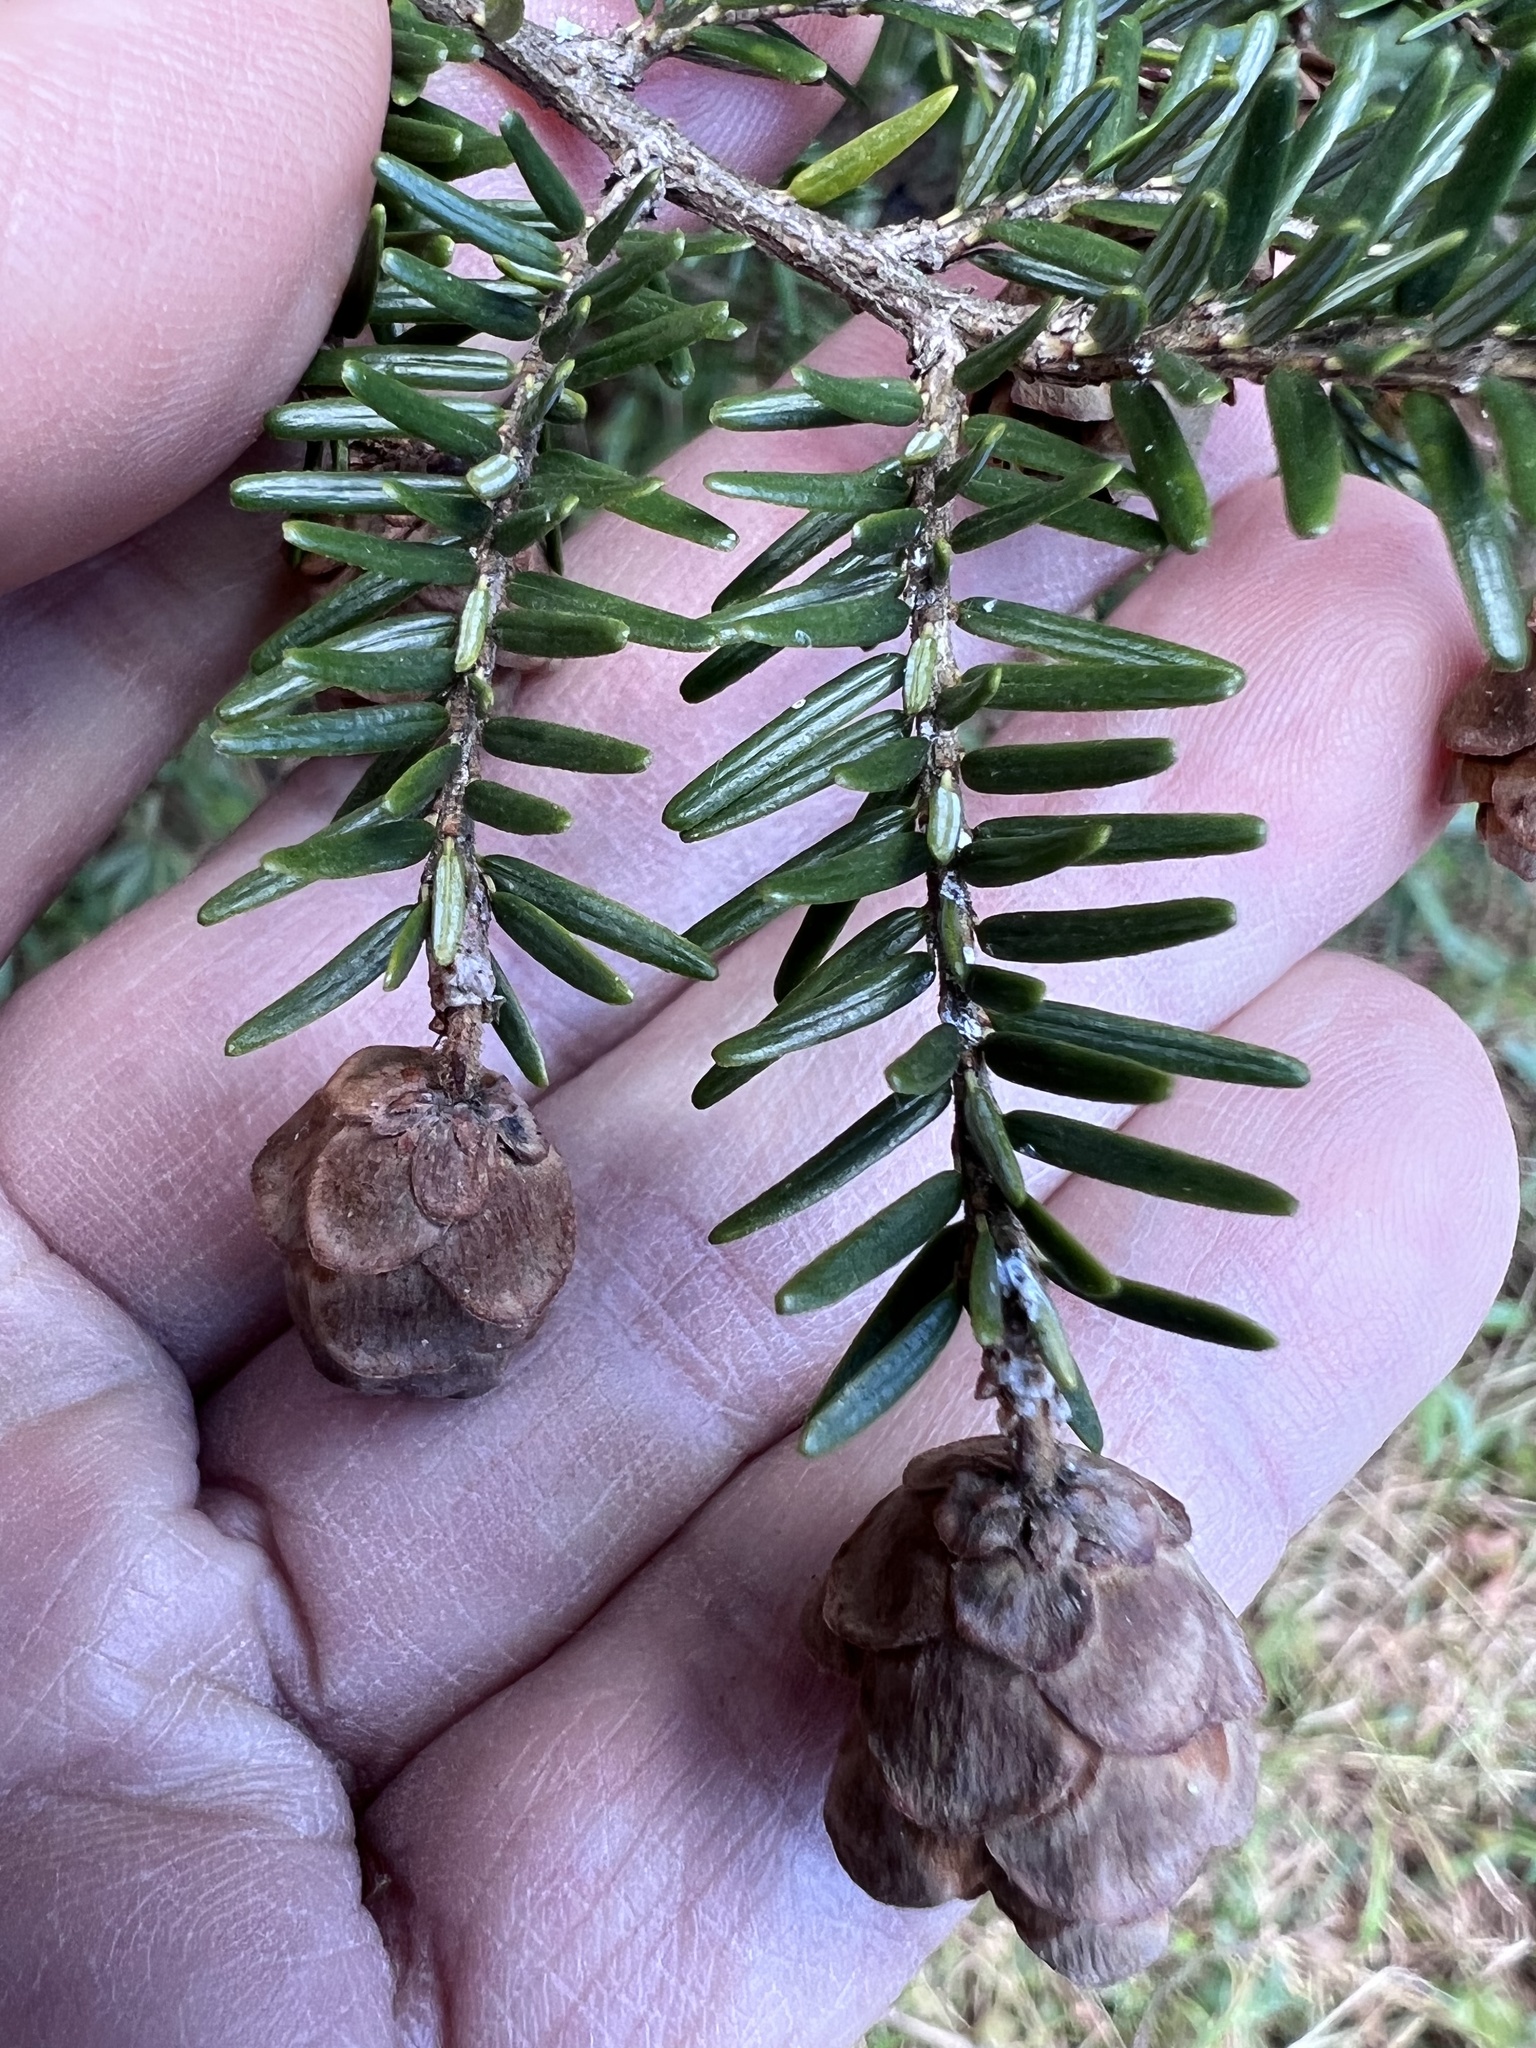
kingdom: Plantae
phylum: Tracheophyta
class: Pinopsida
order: Pinales
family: Pinaceae
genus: Tsuga
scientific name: Tsuga canadensis
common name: Eastern hemlock
